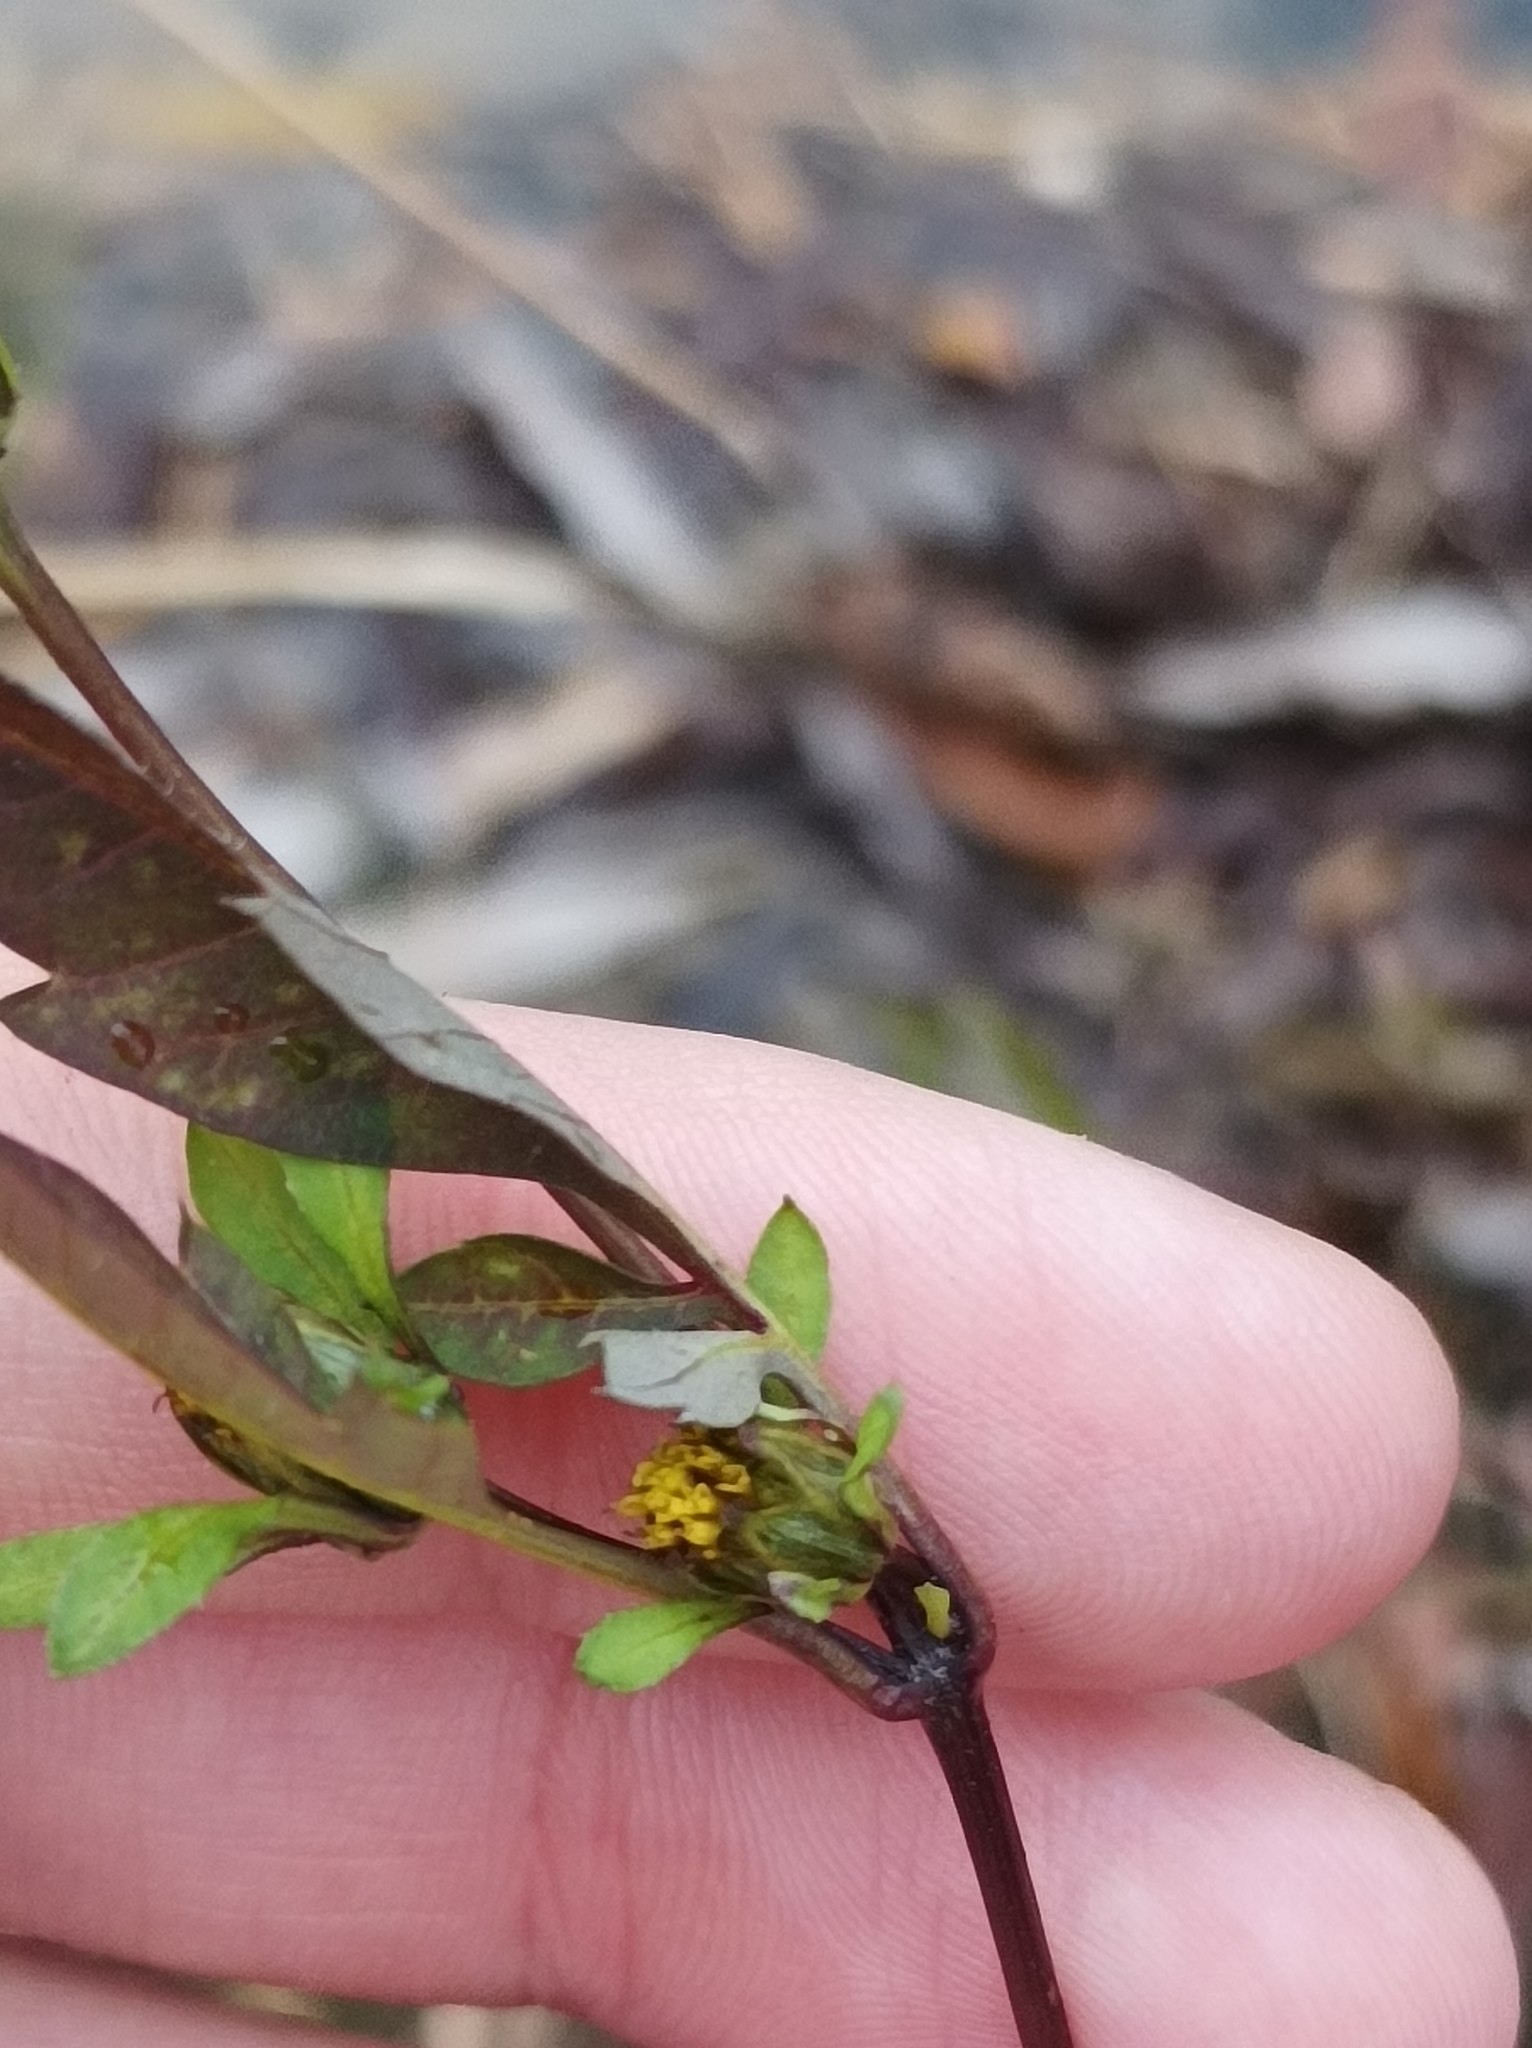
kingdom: Plantae
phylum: Tracheophyta
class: Magnoliopsida
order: Asterales
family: Asteraceae
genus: Bidens
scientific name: Bidens frondosa
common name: Beggarticks
